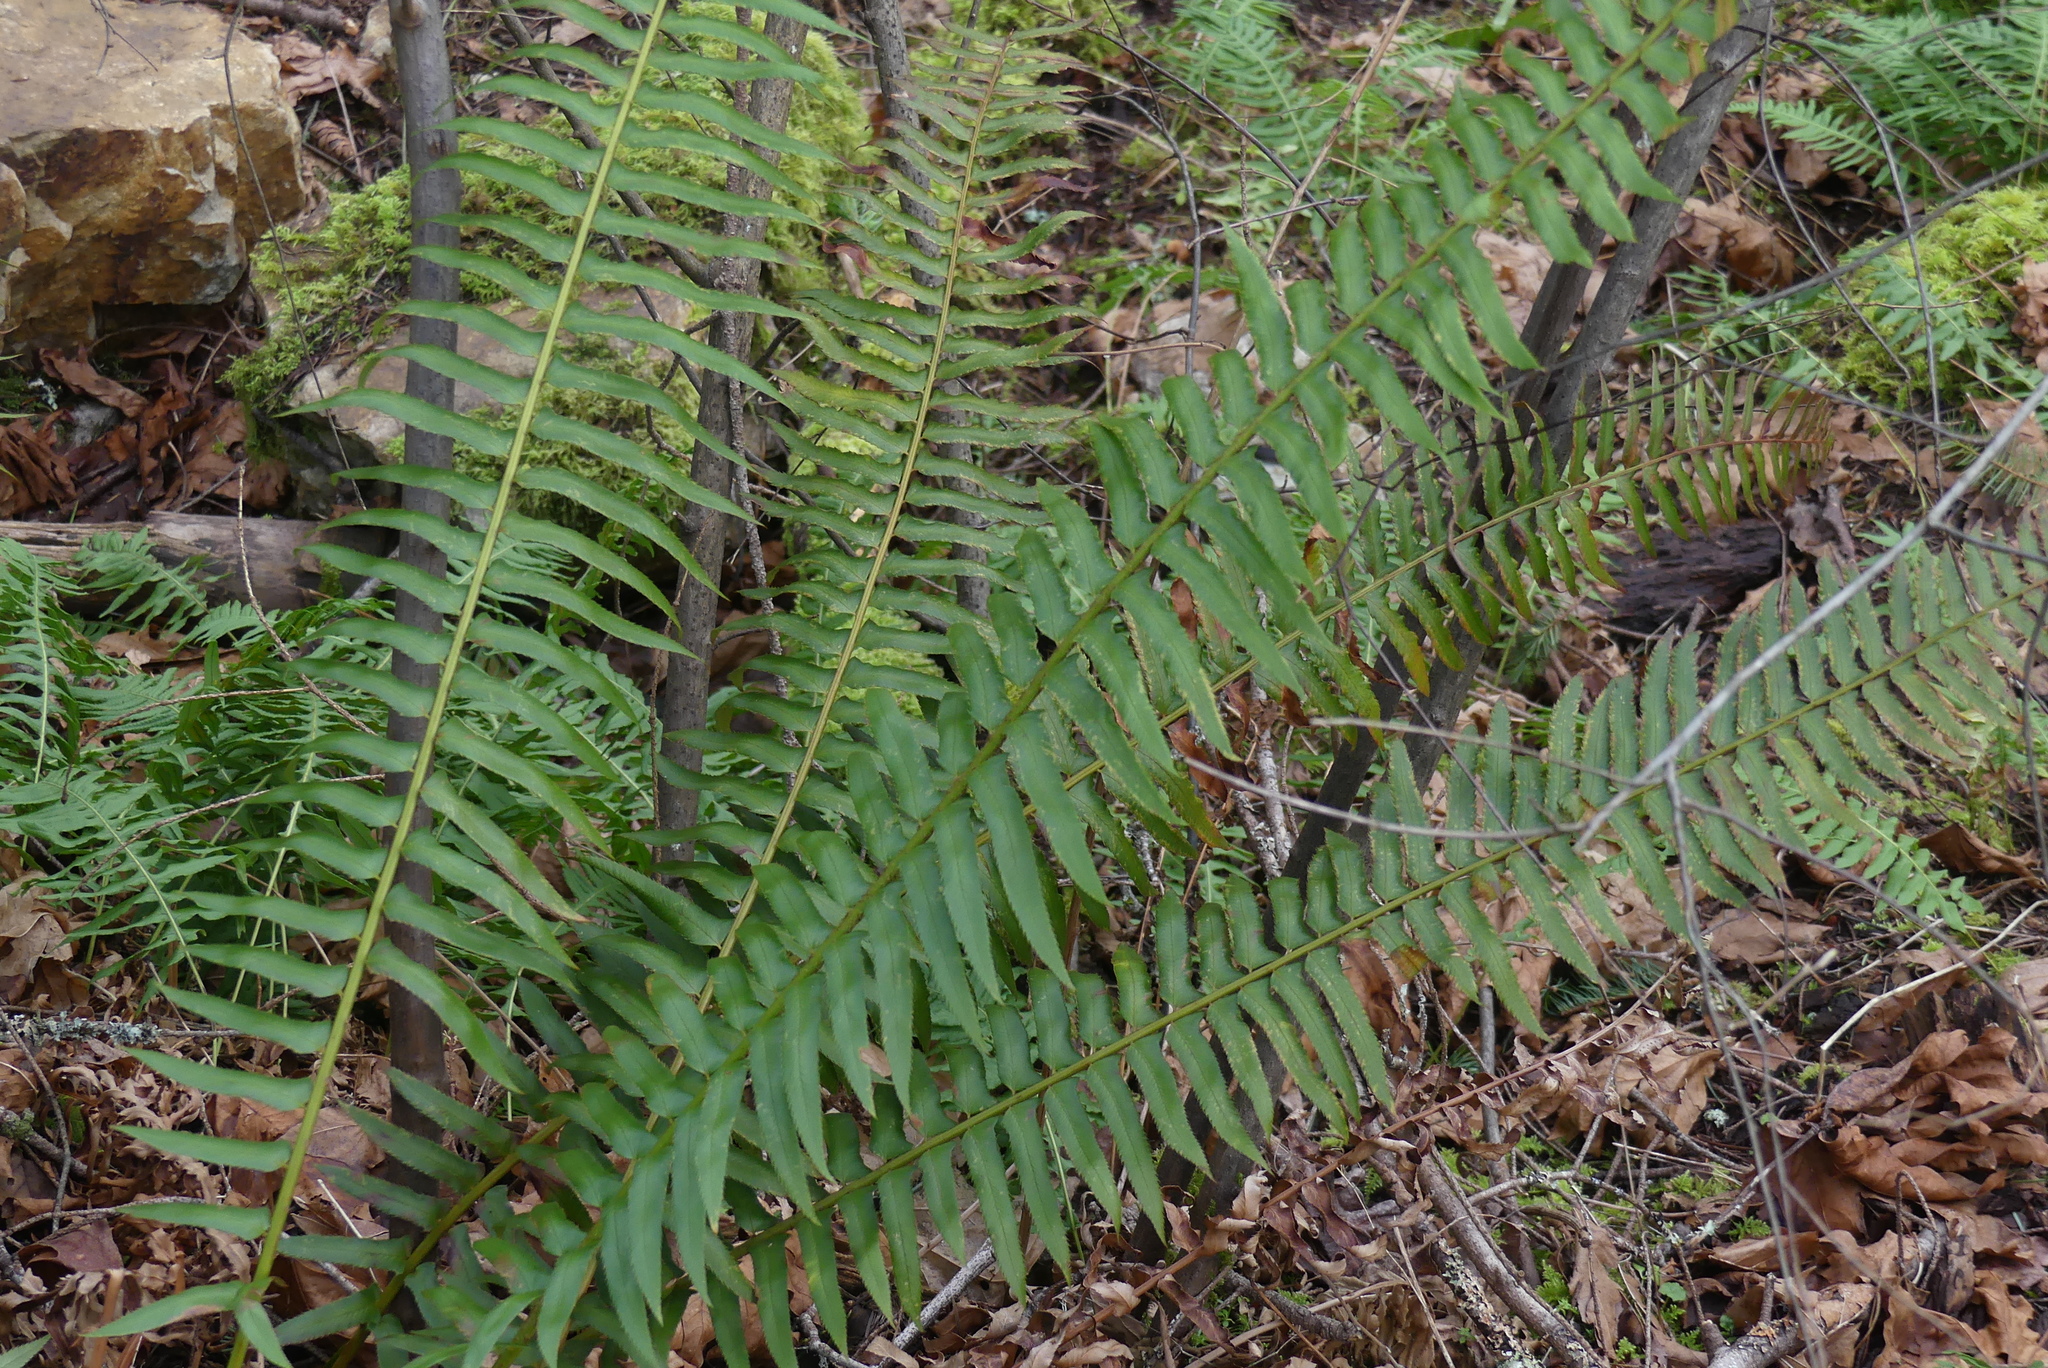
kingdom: Plantae
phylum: Tracheophyta
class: Polypodiopsida
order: Polypodiales
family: Dryopteridaceae
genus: Polystichum
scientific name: Polystichum munitum
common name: Western sword-fern
